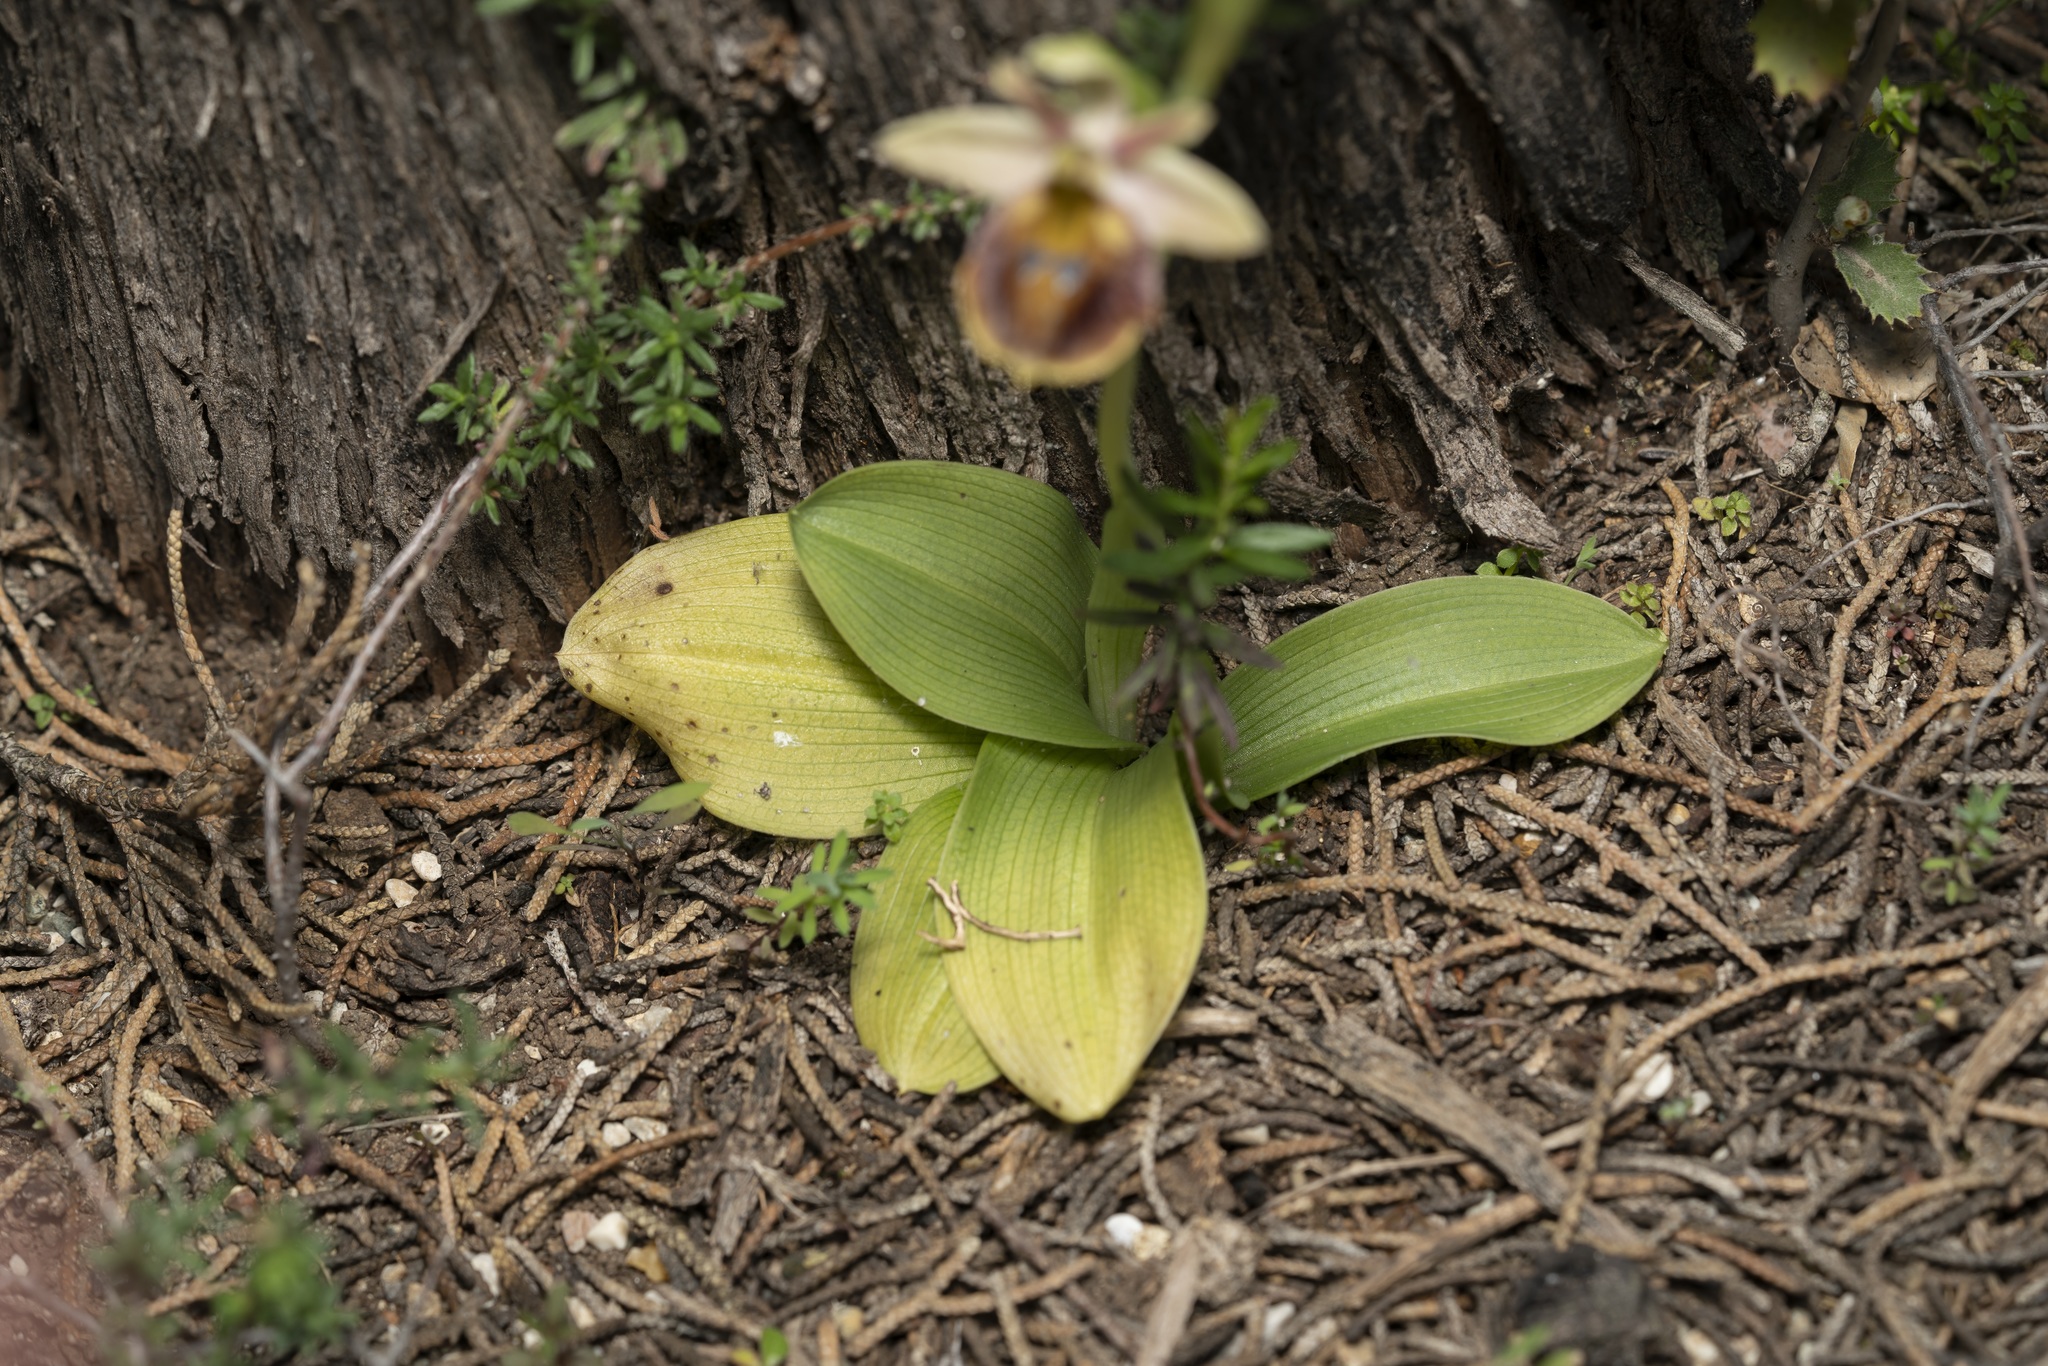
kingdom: Plantae
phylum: Tracheophyta
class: Liliopsida
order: Asparagales
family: Orchidaceae
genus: Ophrys
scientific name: Ophrys argolica
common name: Argolic ophrys
